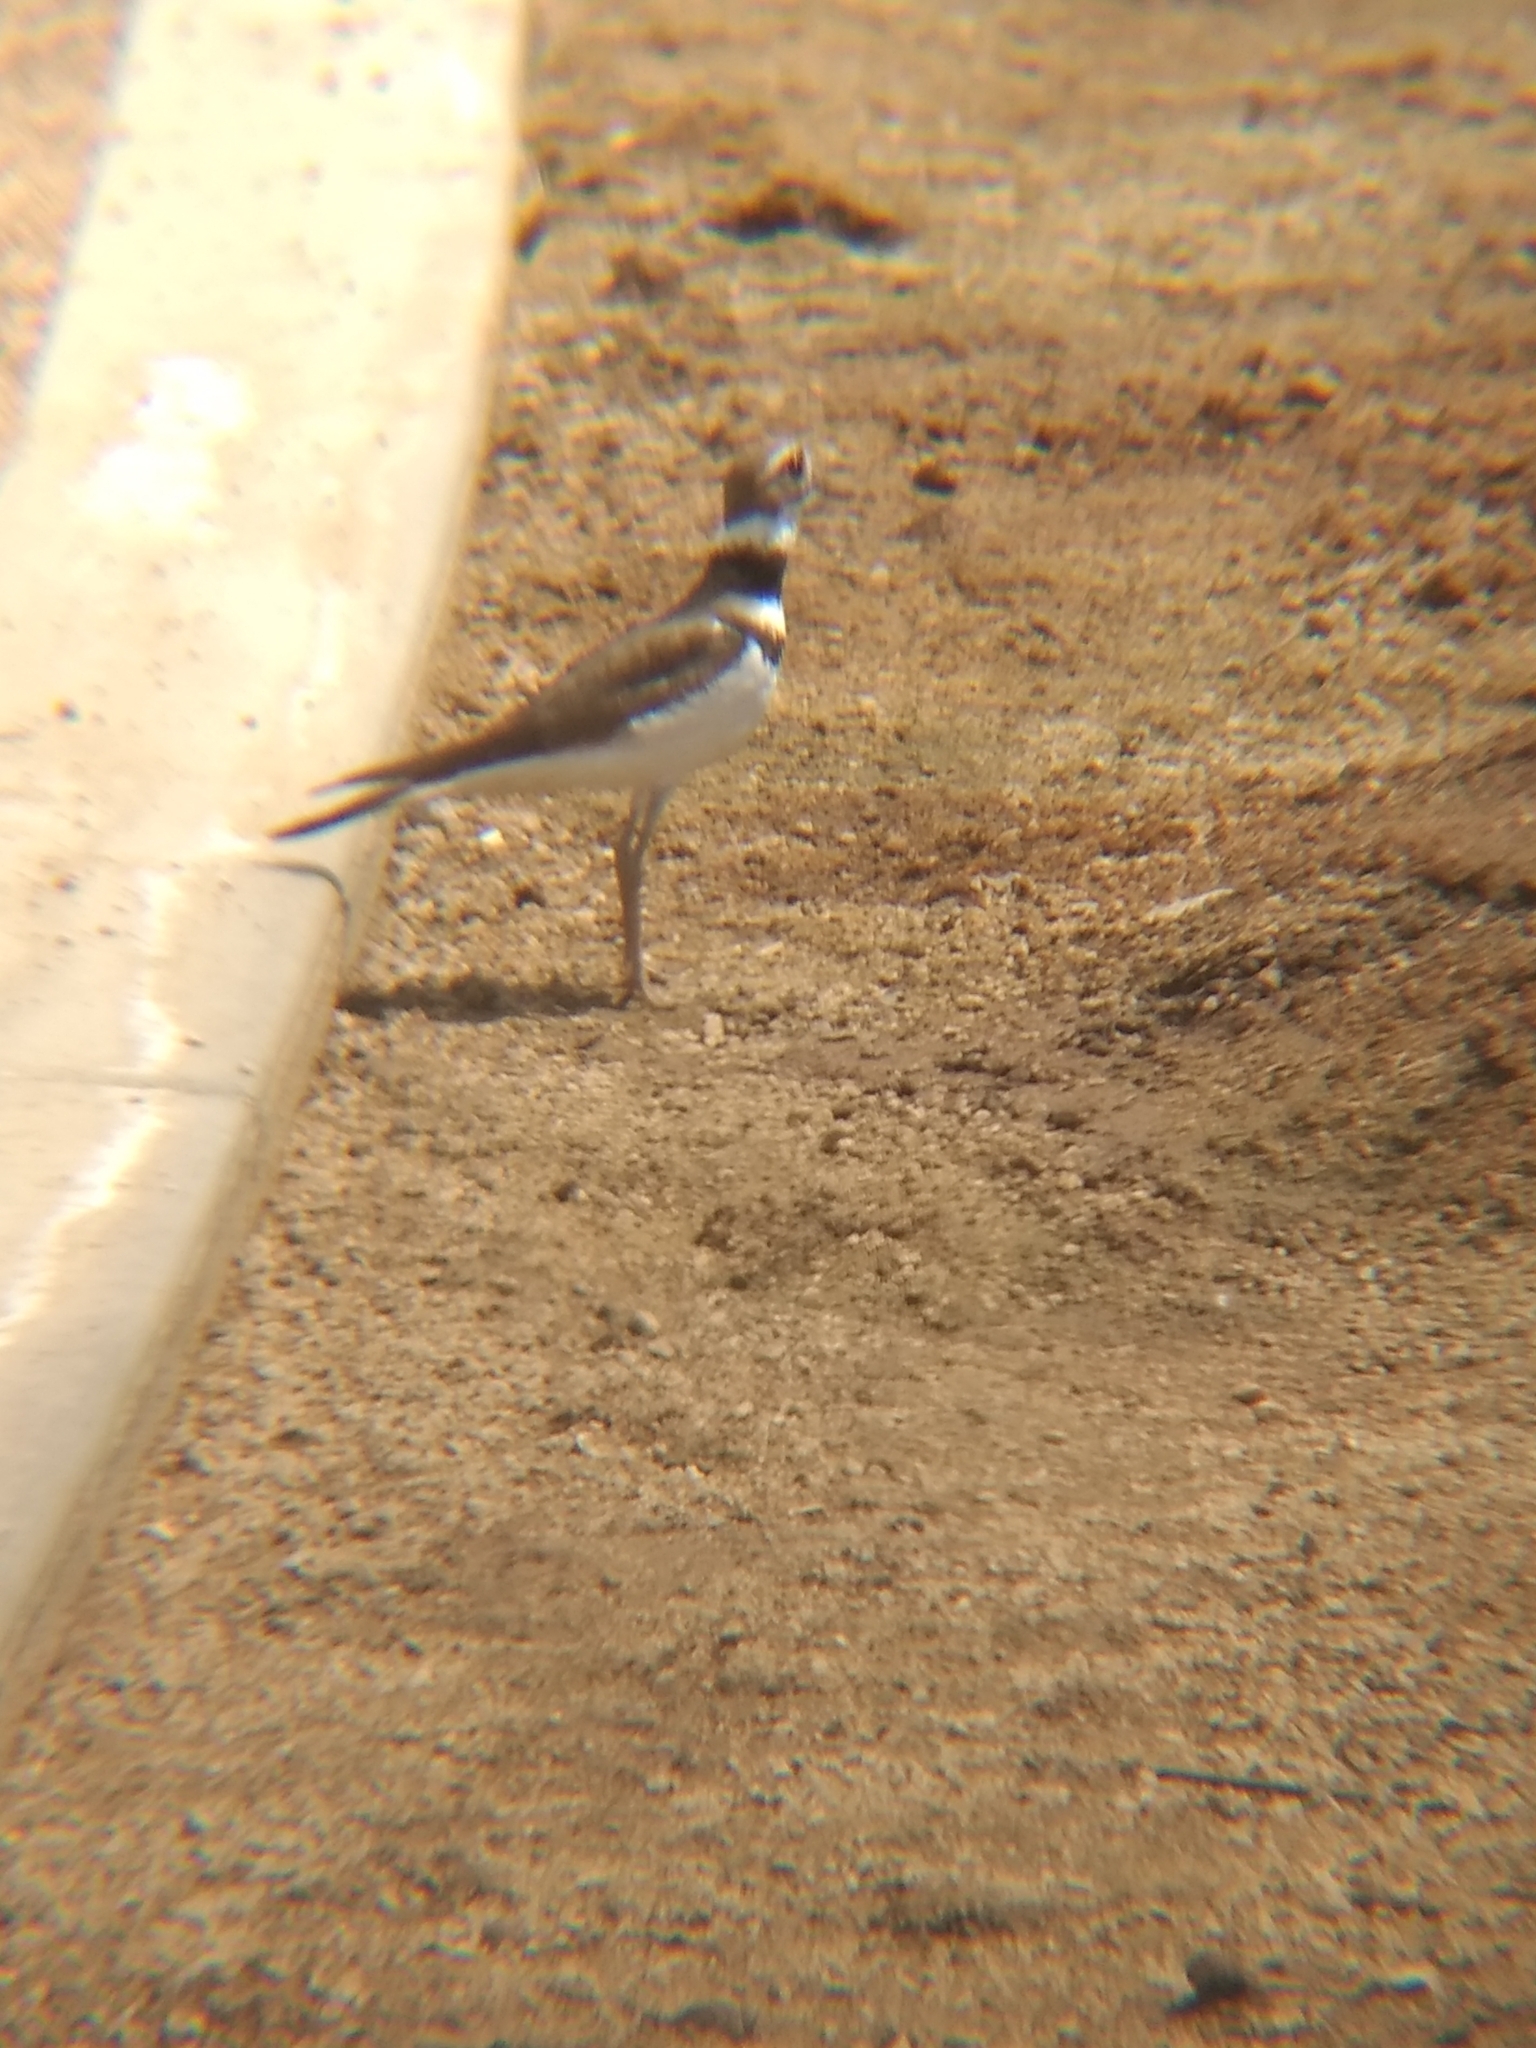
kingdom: Animalia
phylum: Chordata
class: Aves
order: Charadriiformes
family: Charadriidae
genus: Charadrius
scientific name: Charadrius vociferus
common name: Killdeer
